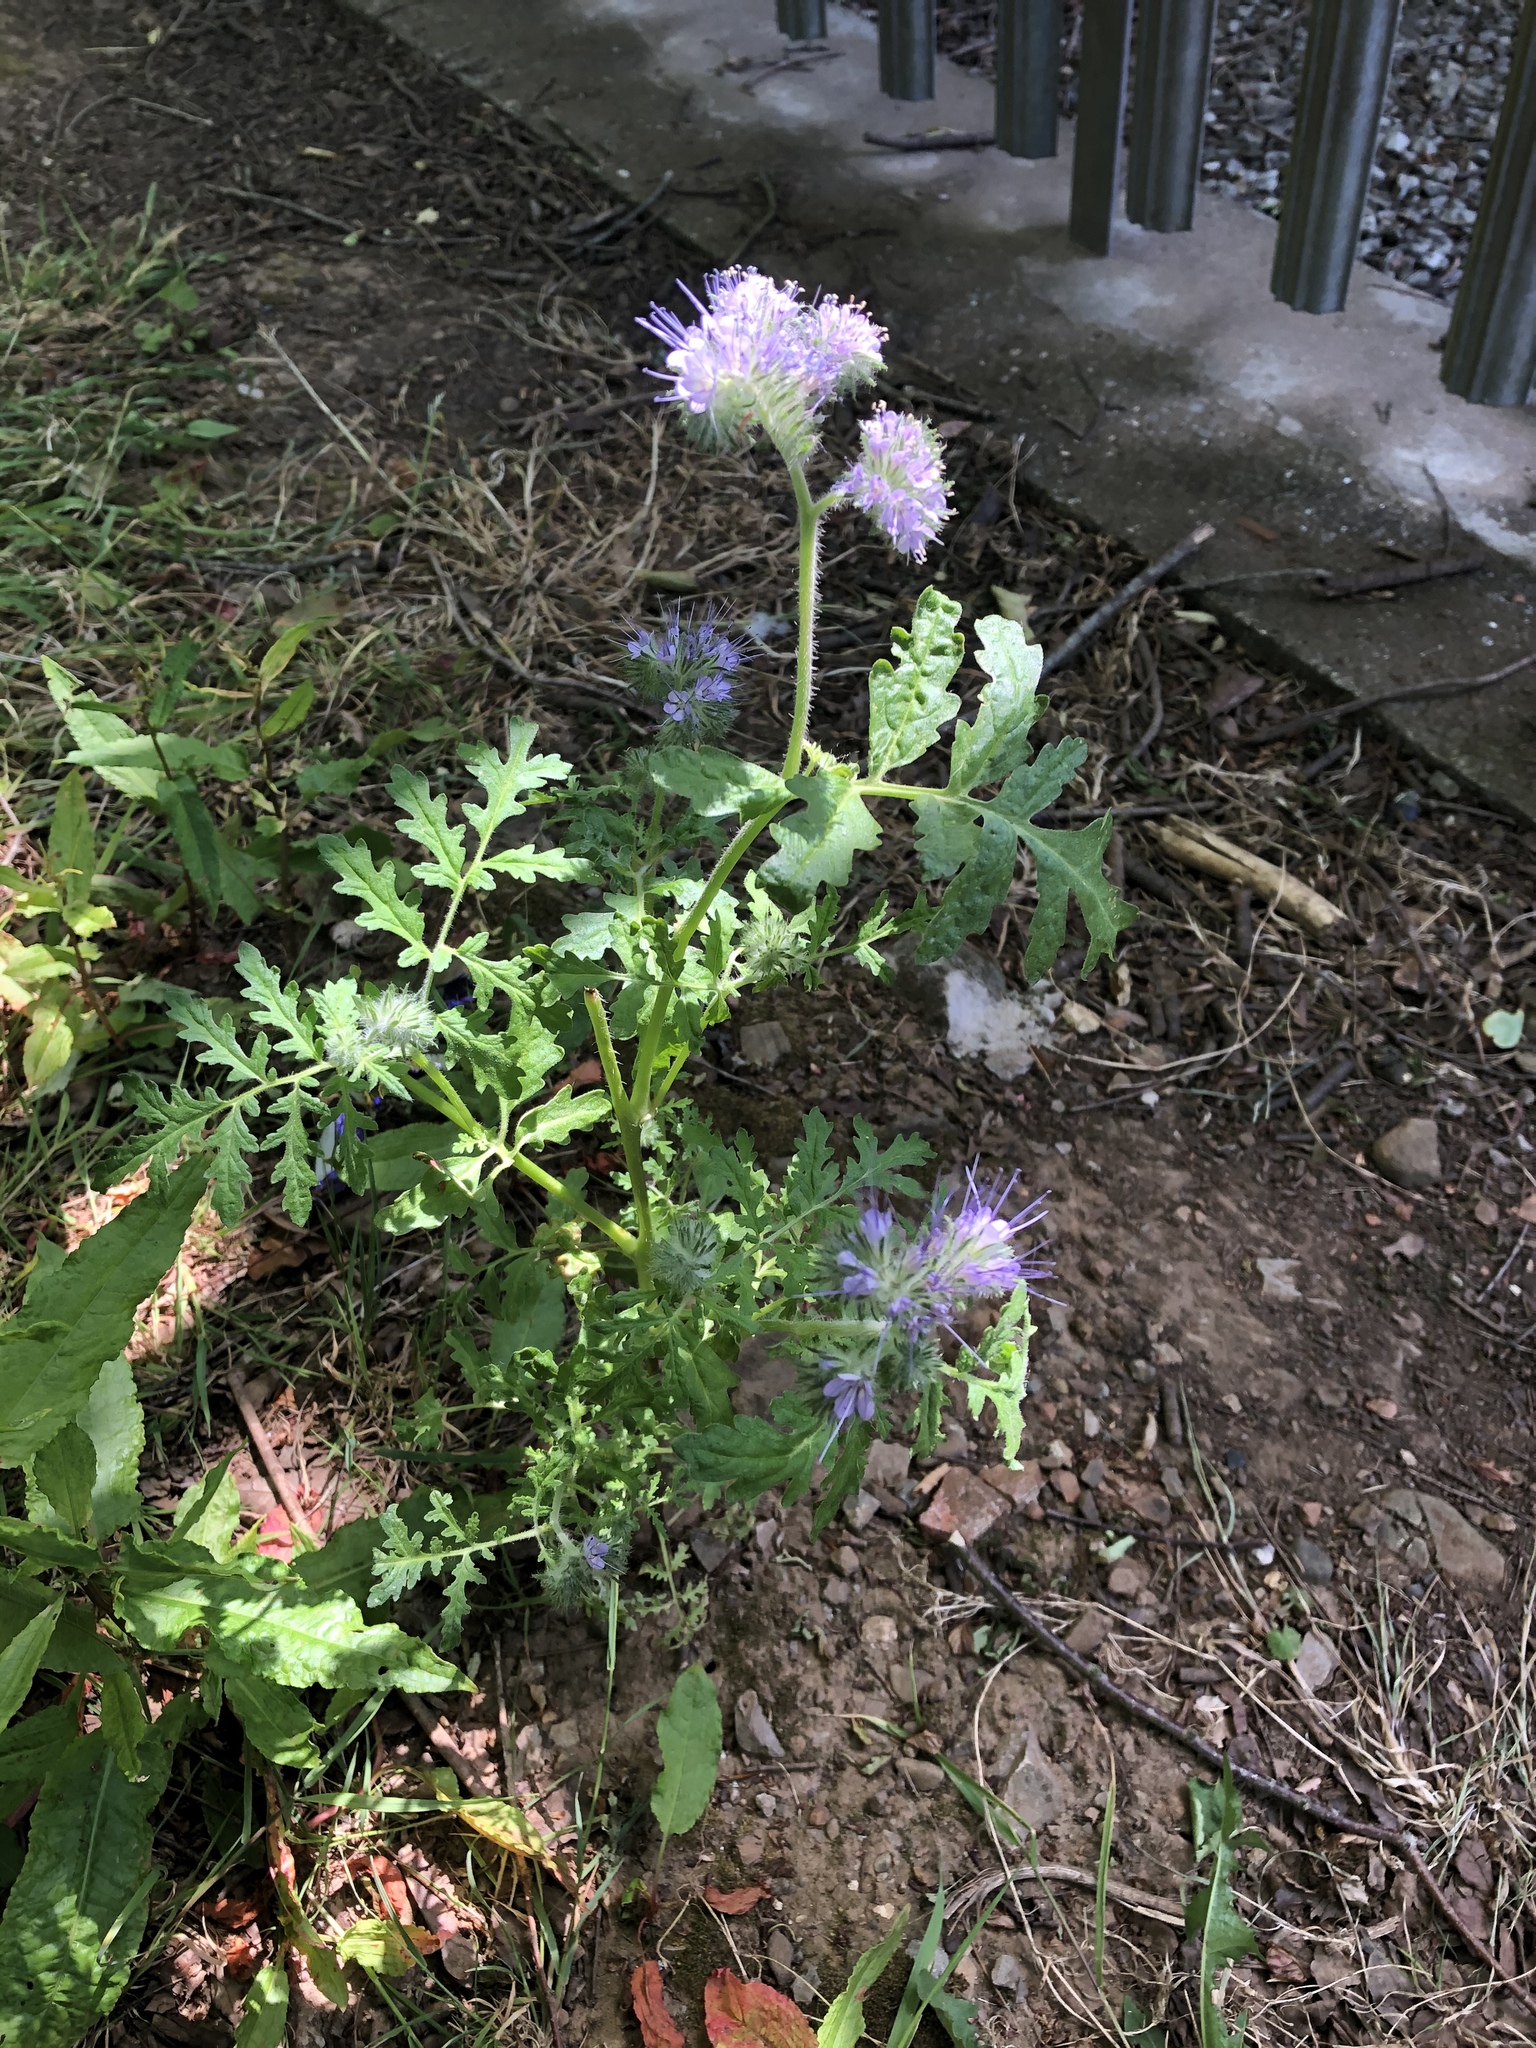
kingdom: Plantae
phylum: Tracheophyta
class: Magnoliopsida
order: Boraginales
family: Hydrophyllaceae
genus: Phacelia
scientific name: Phacelia tanacetifolia
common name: Phacelia
